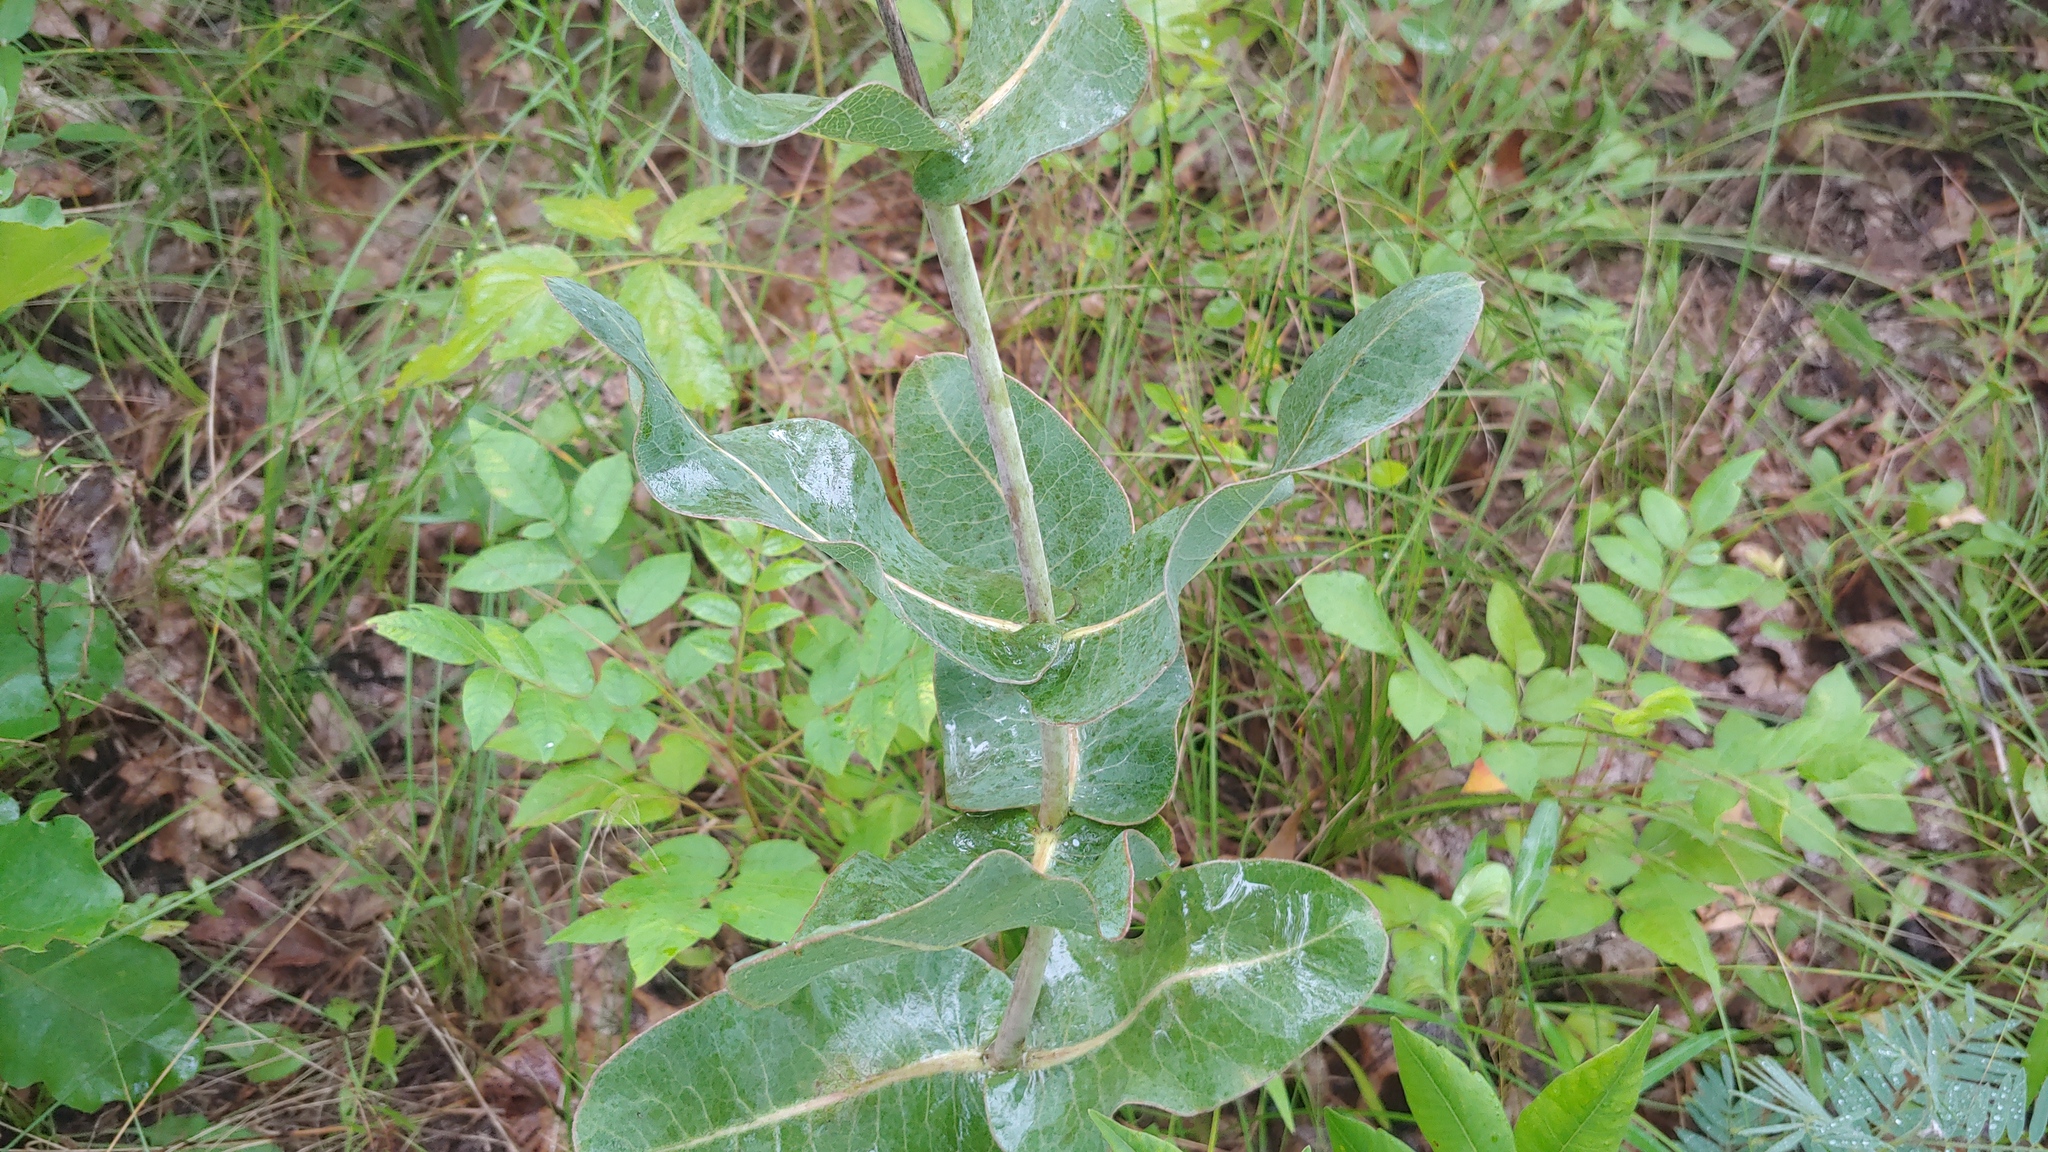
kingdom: Plantae
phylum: Tracheophyta
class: Magnoliopsida
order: Gentianales
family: Apocynaceae
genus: Asclepias
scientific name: Asclepias amplexicaulis
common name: Blunt-leaf milkweed
